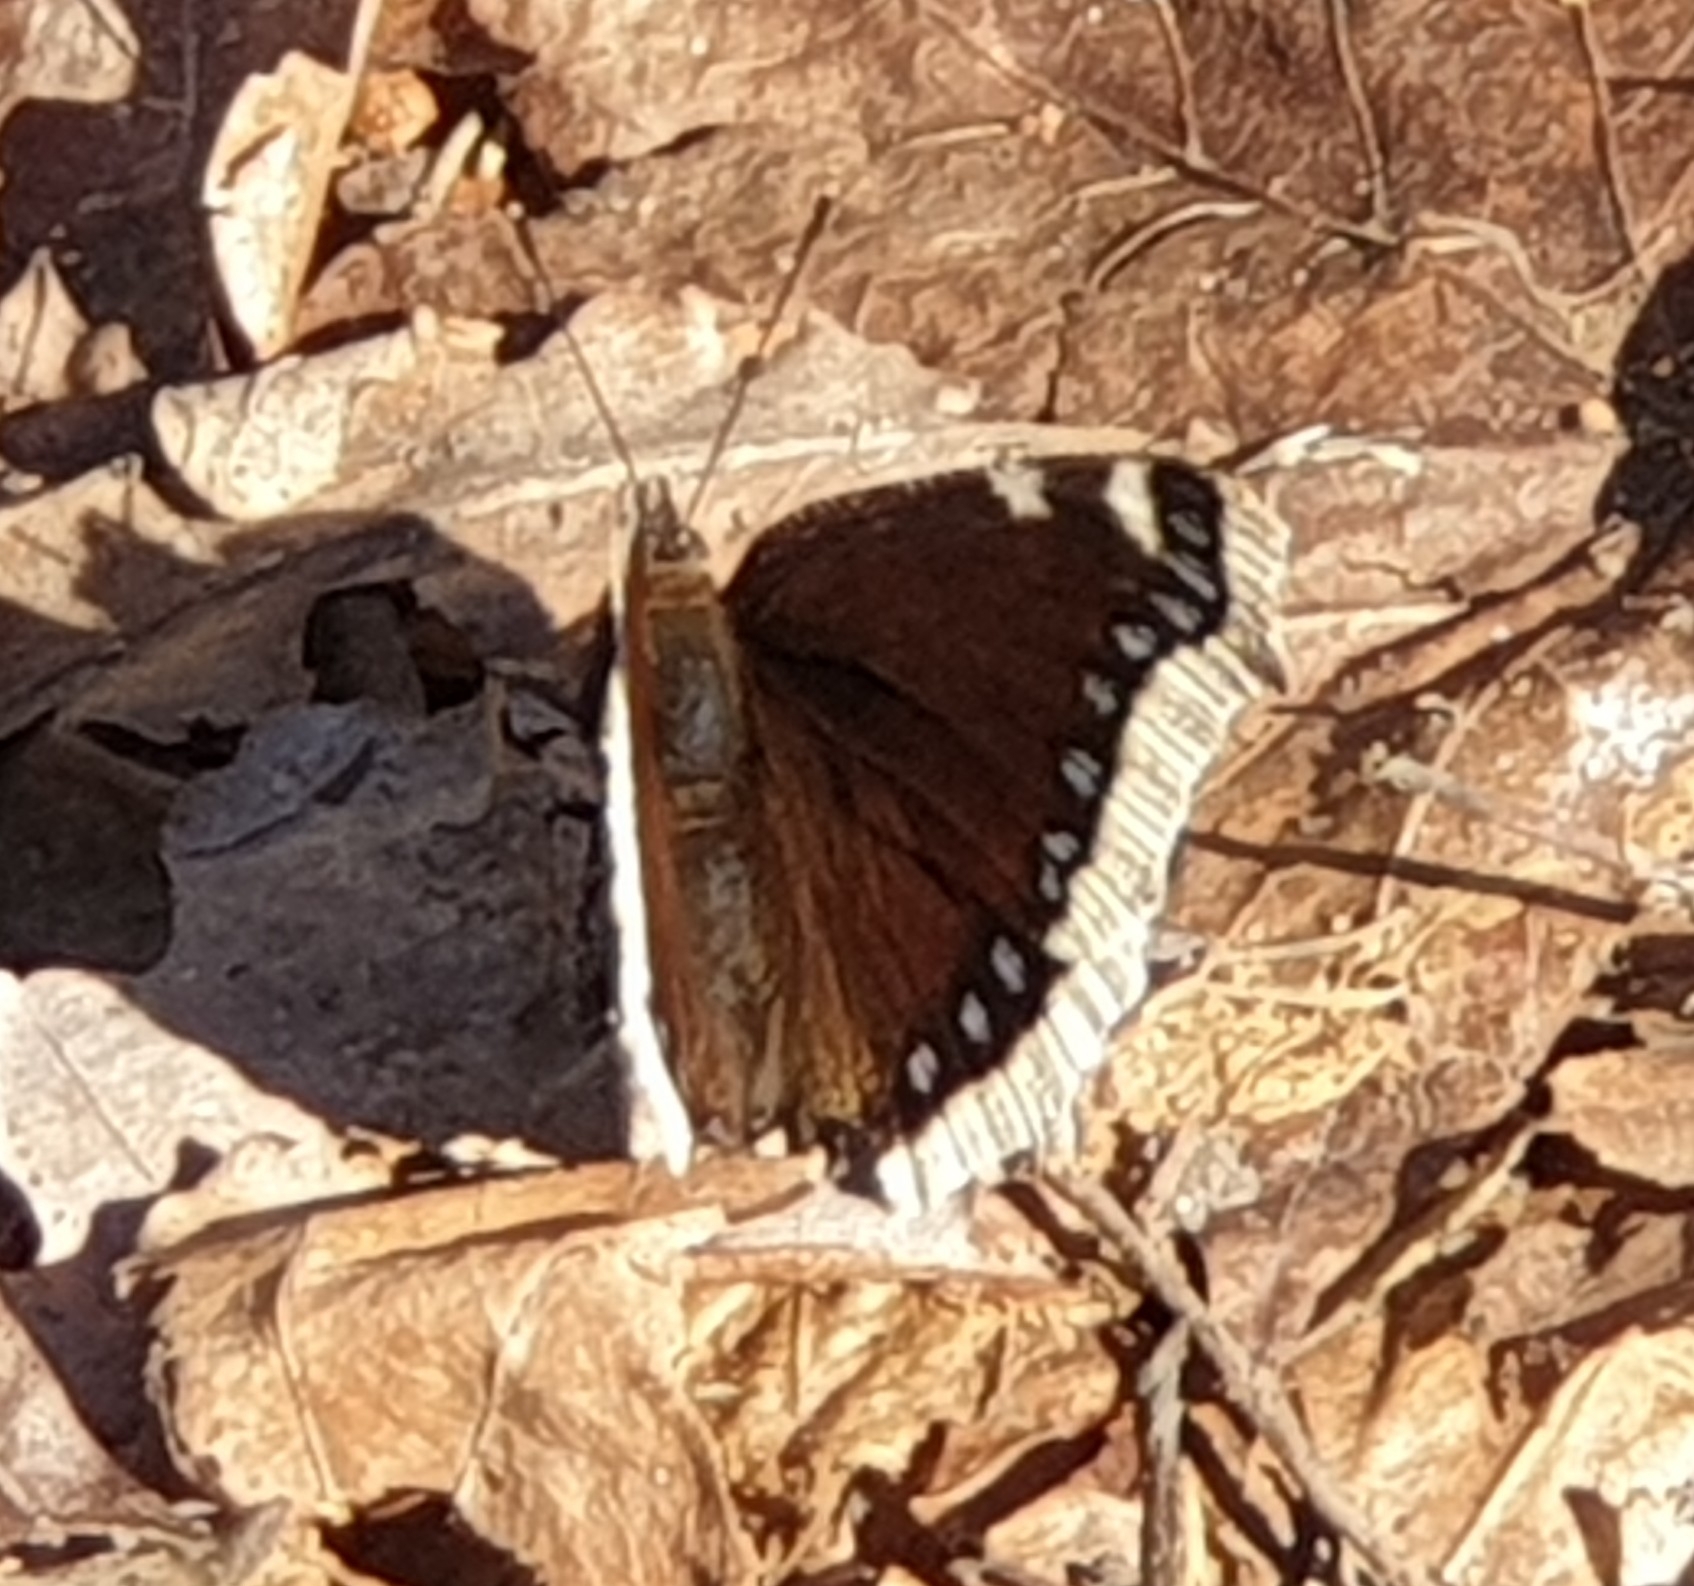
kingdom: Animalia
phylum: Arthropoda
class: Insecta
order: Lepidoptera
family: Nymphalidae
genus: Nymphalis
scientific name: Nymphalis antiopa
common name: Camberwell beauty
